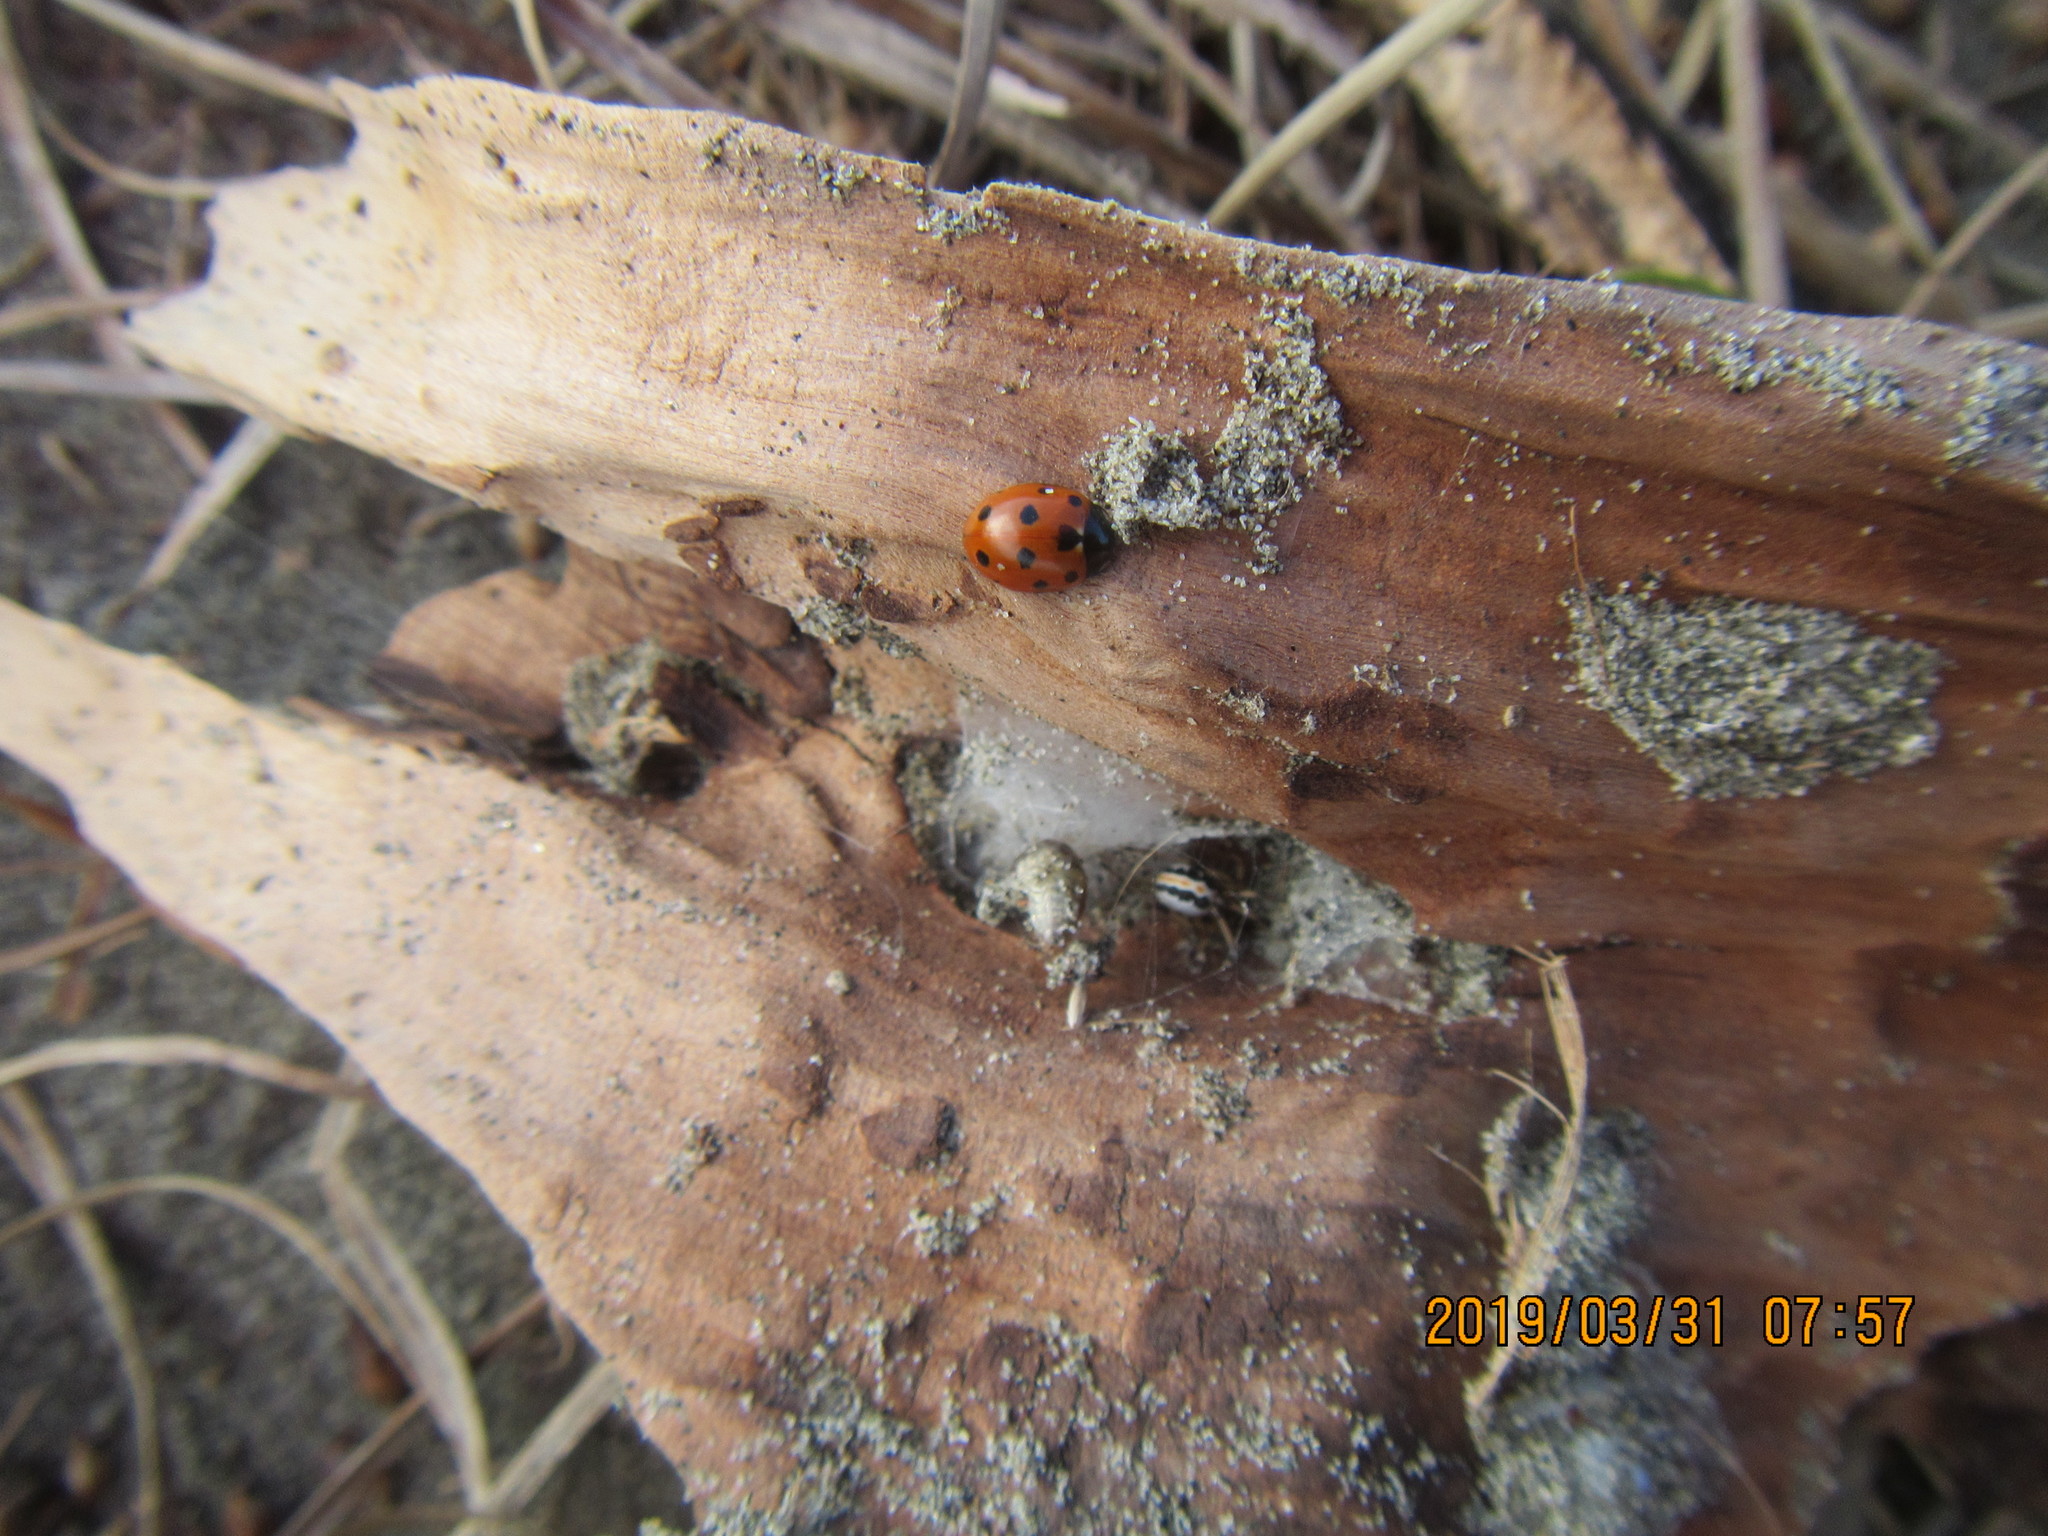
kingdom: Animalia
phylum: Arthropoda
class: Insecta
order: Coleoptera
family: Coccinellidae
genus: Coccinella
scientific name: Coccinella undecimpunctata
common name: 11-spot ladybird
